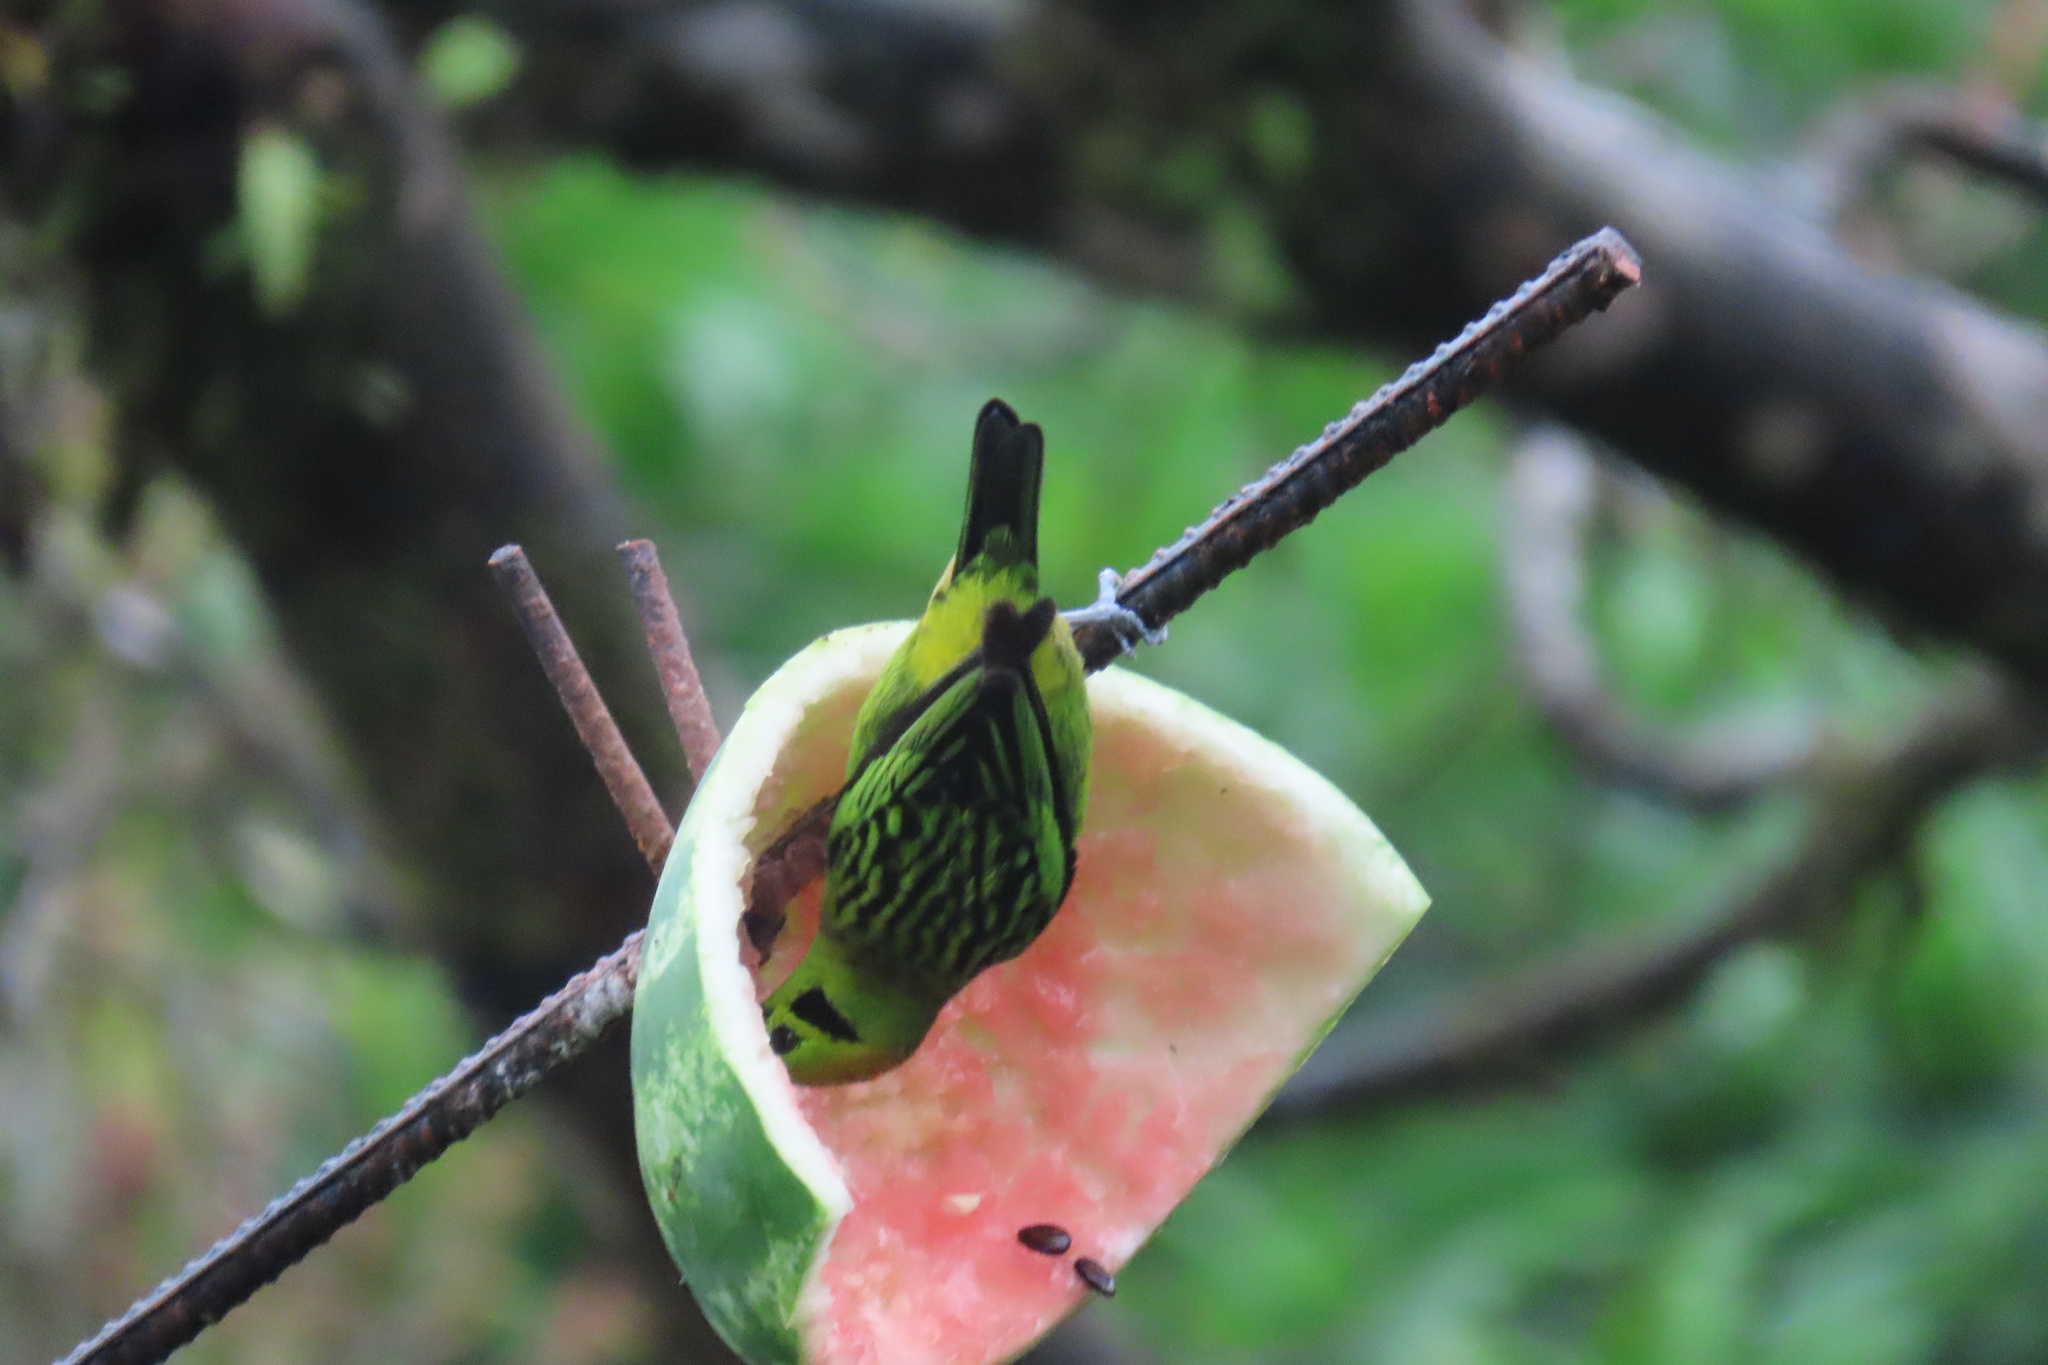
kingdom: Animalia
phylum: Chordata
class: Aves
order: Passeriformes
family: Thraupidae
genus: Tangara
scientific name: Tangara florida
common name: Emerald tanager
